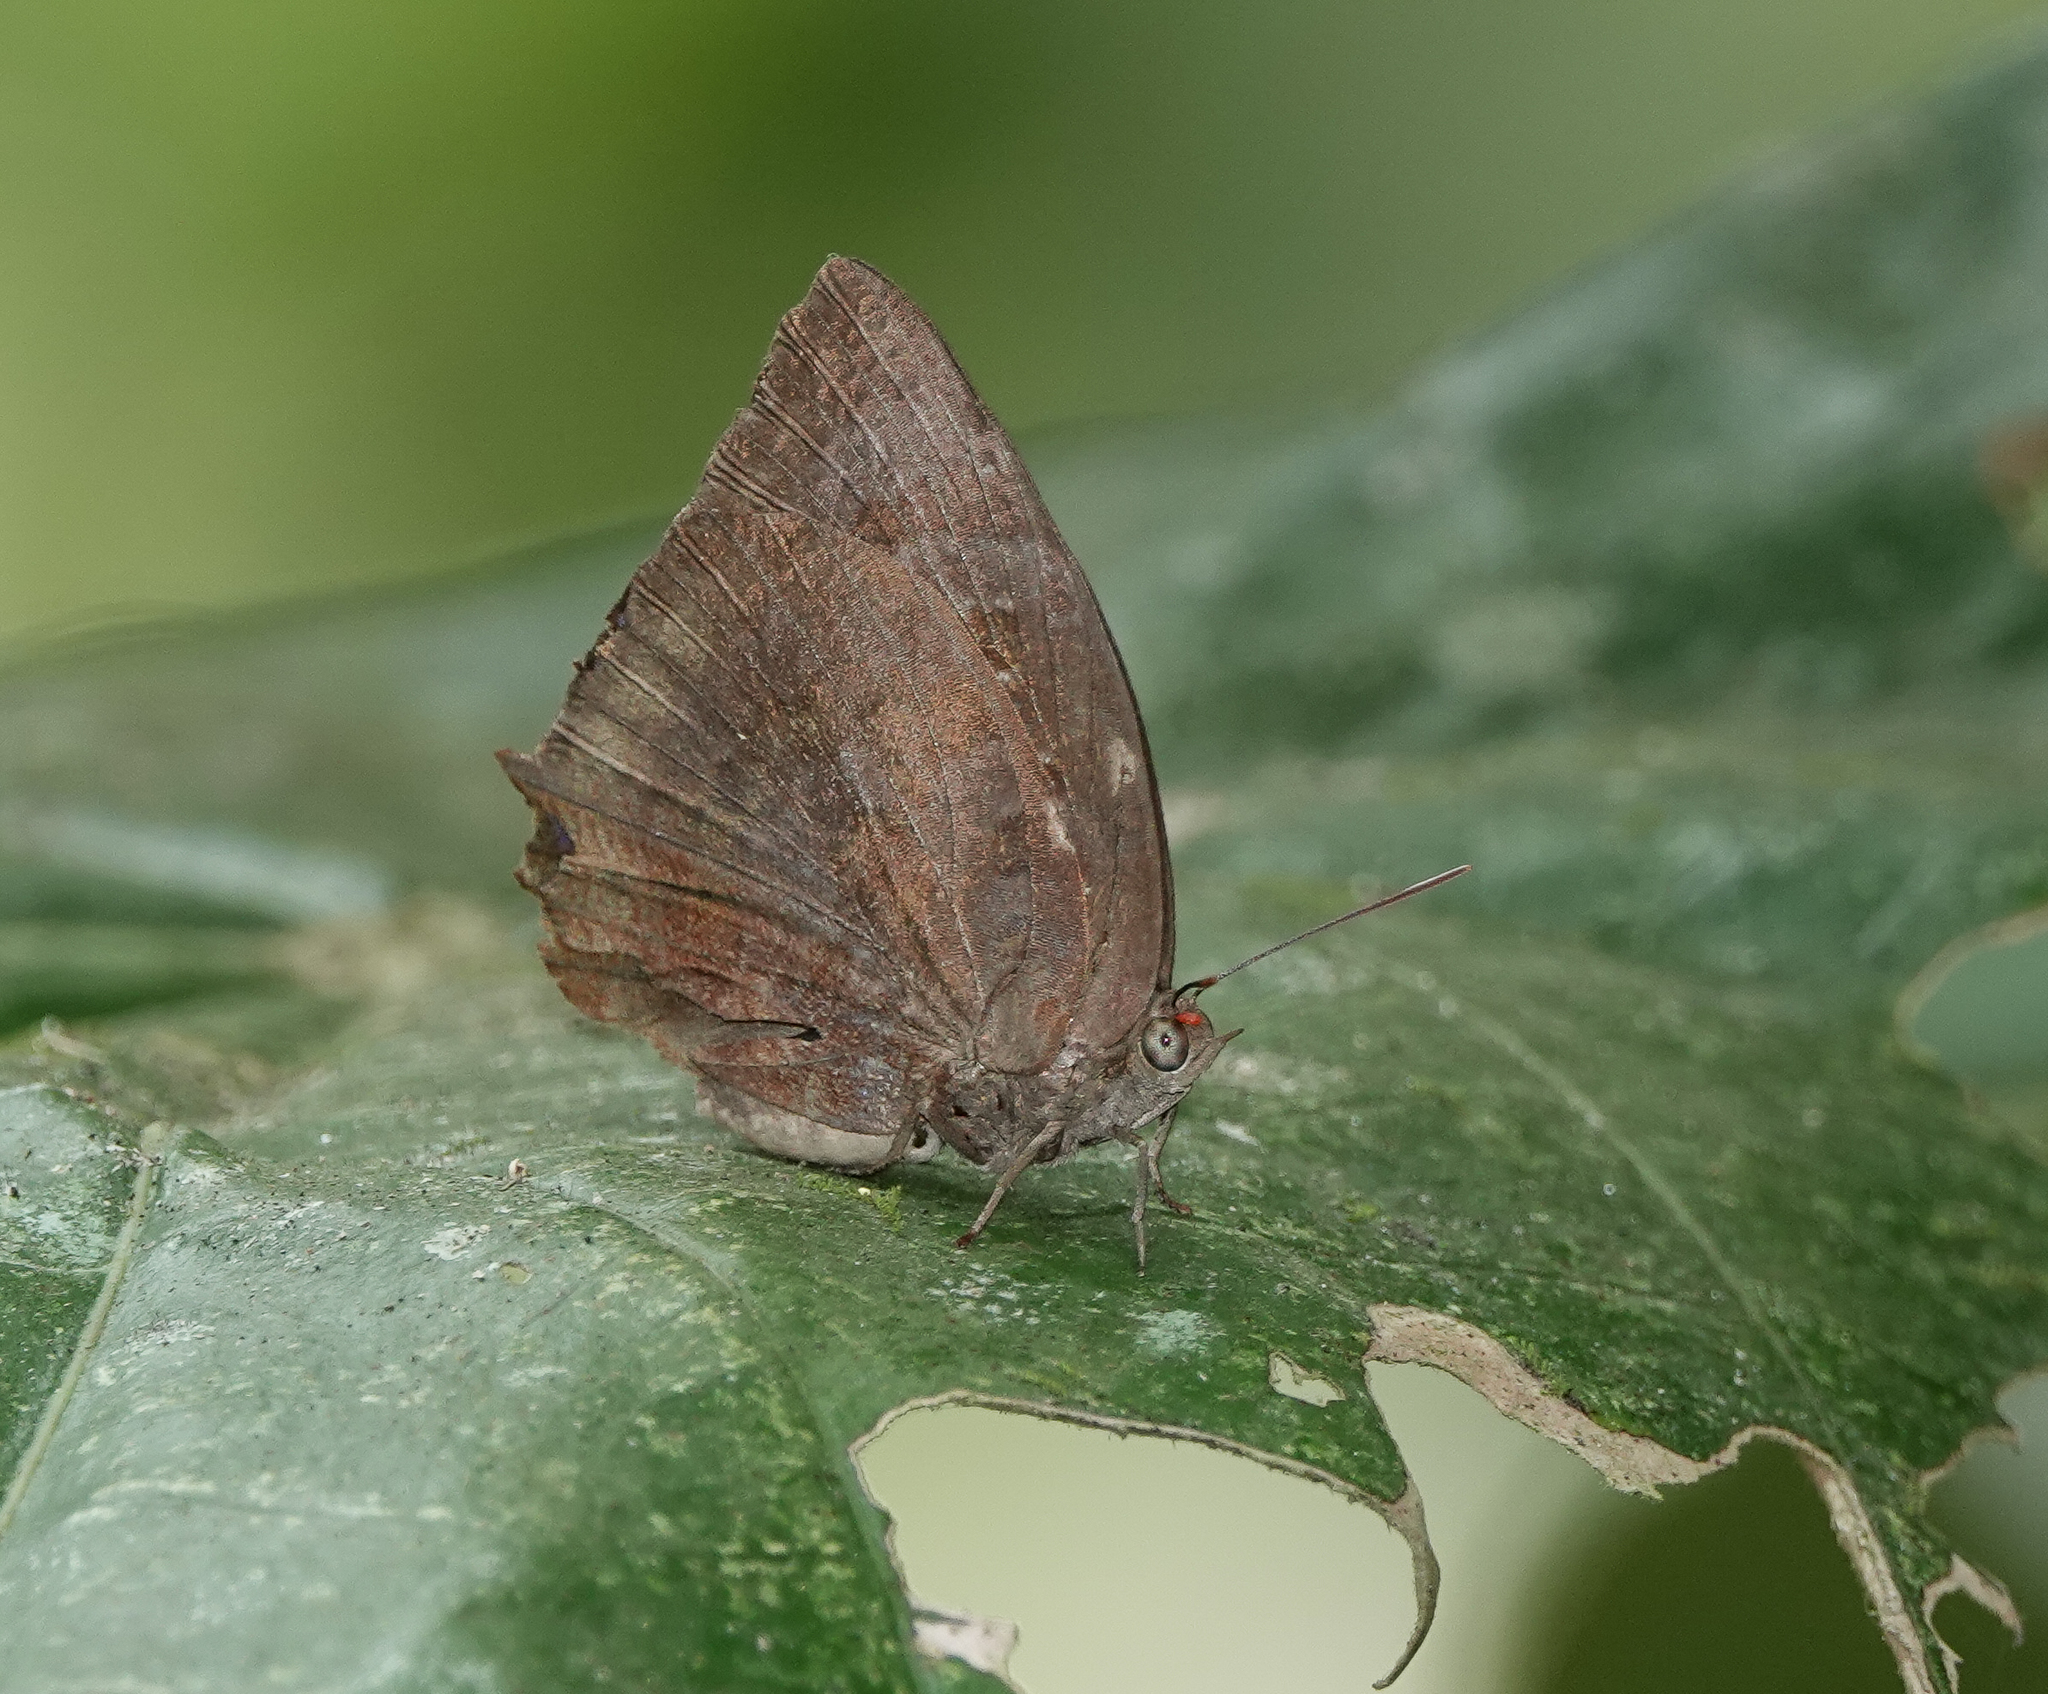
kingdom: Animalia
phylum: Arthropoda
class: Insecta
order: Lepidoptera
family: Lycaenidae
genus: Arhopala
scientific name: Arhopala centaurus
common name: Dull oak-blue
